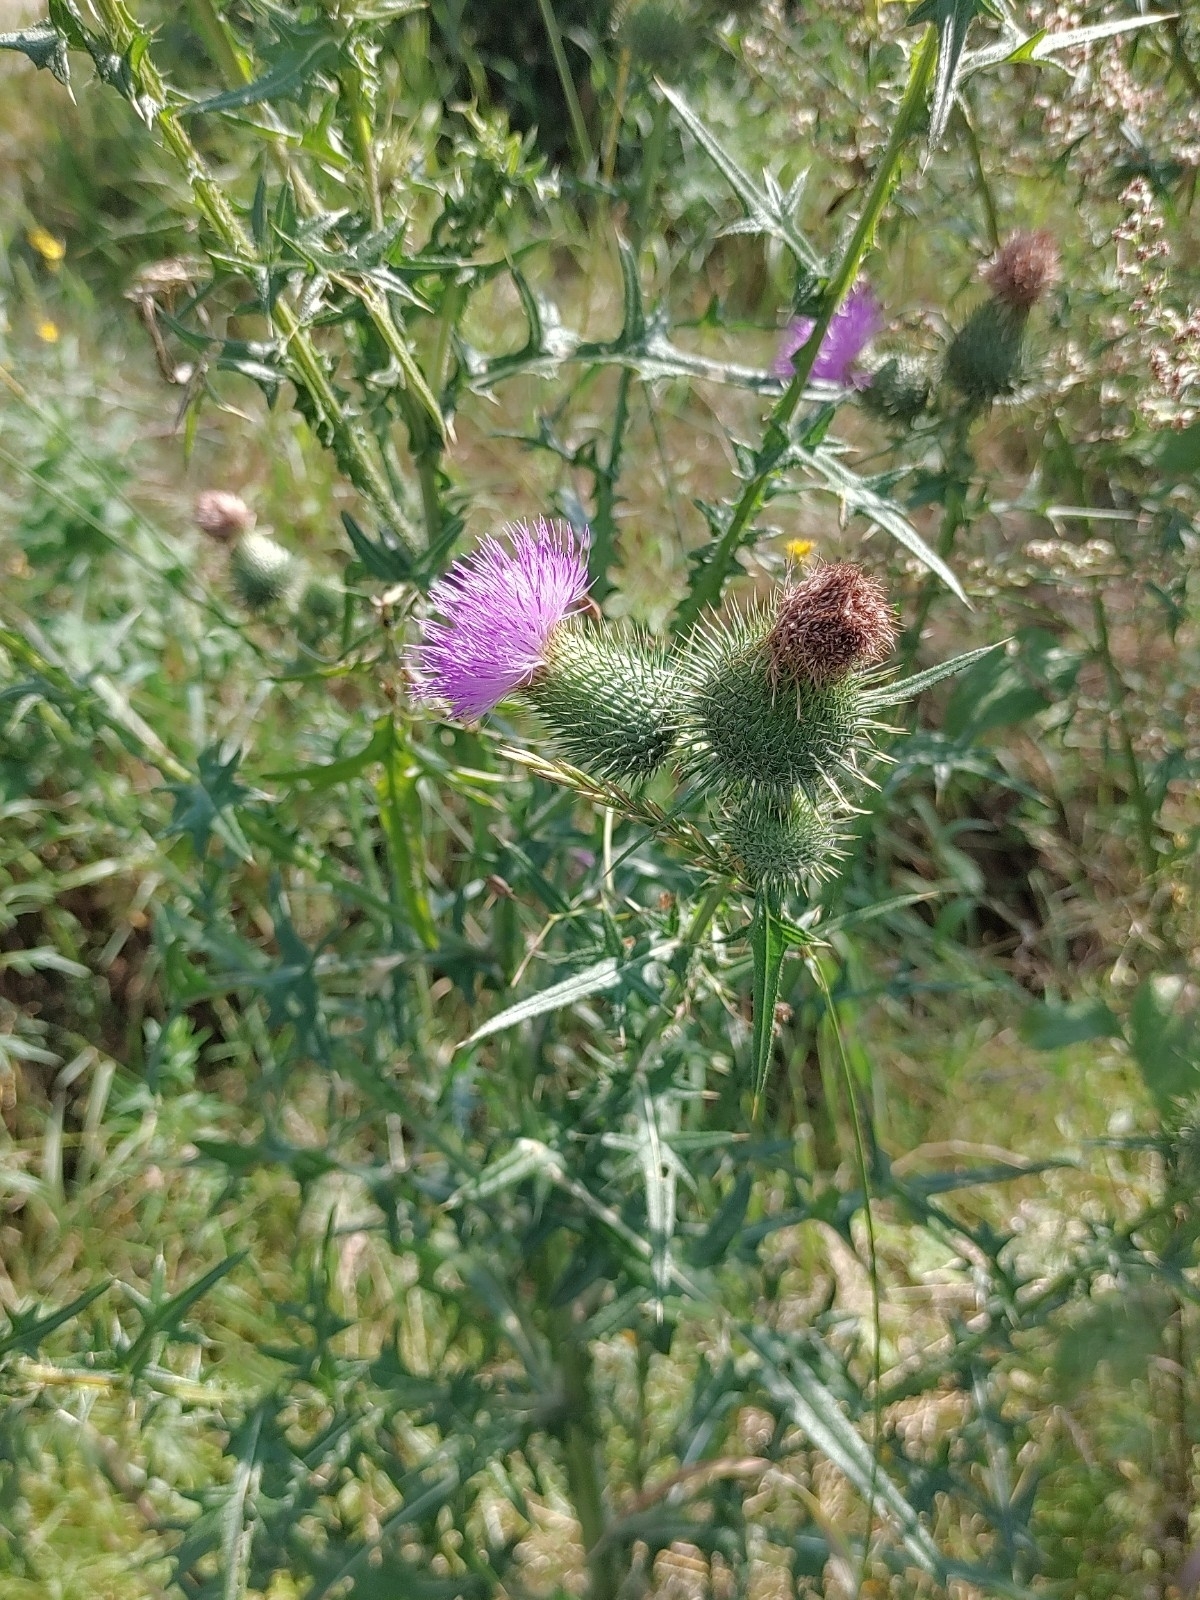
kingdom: Plantae
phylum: Tracheophyta
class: Magnoliopsida
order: Asterales
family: Asteraceae
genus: Cirsium
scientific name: Cirsium vulgare
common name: Bull thistle
